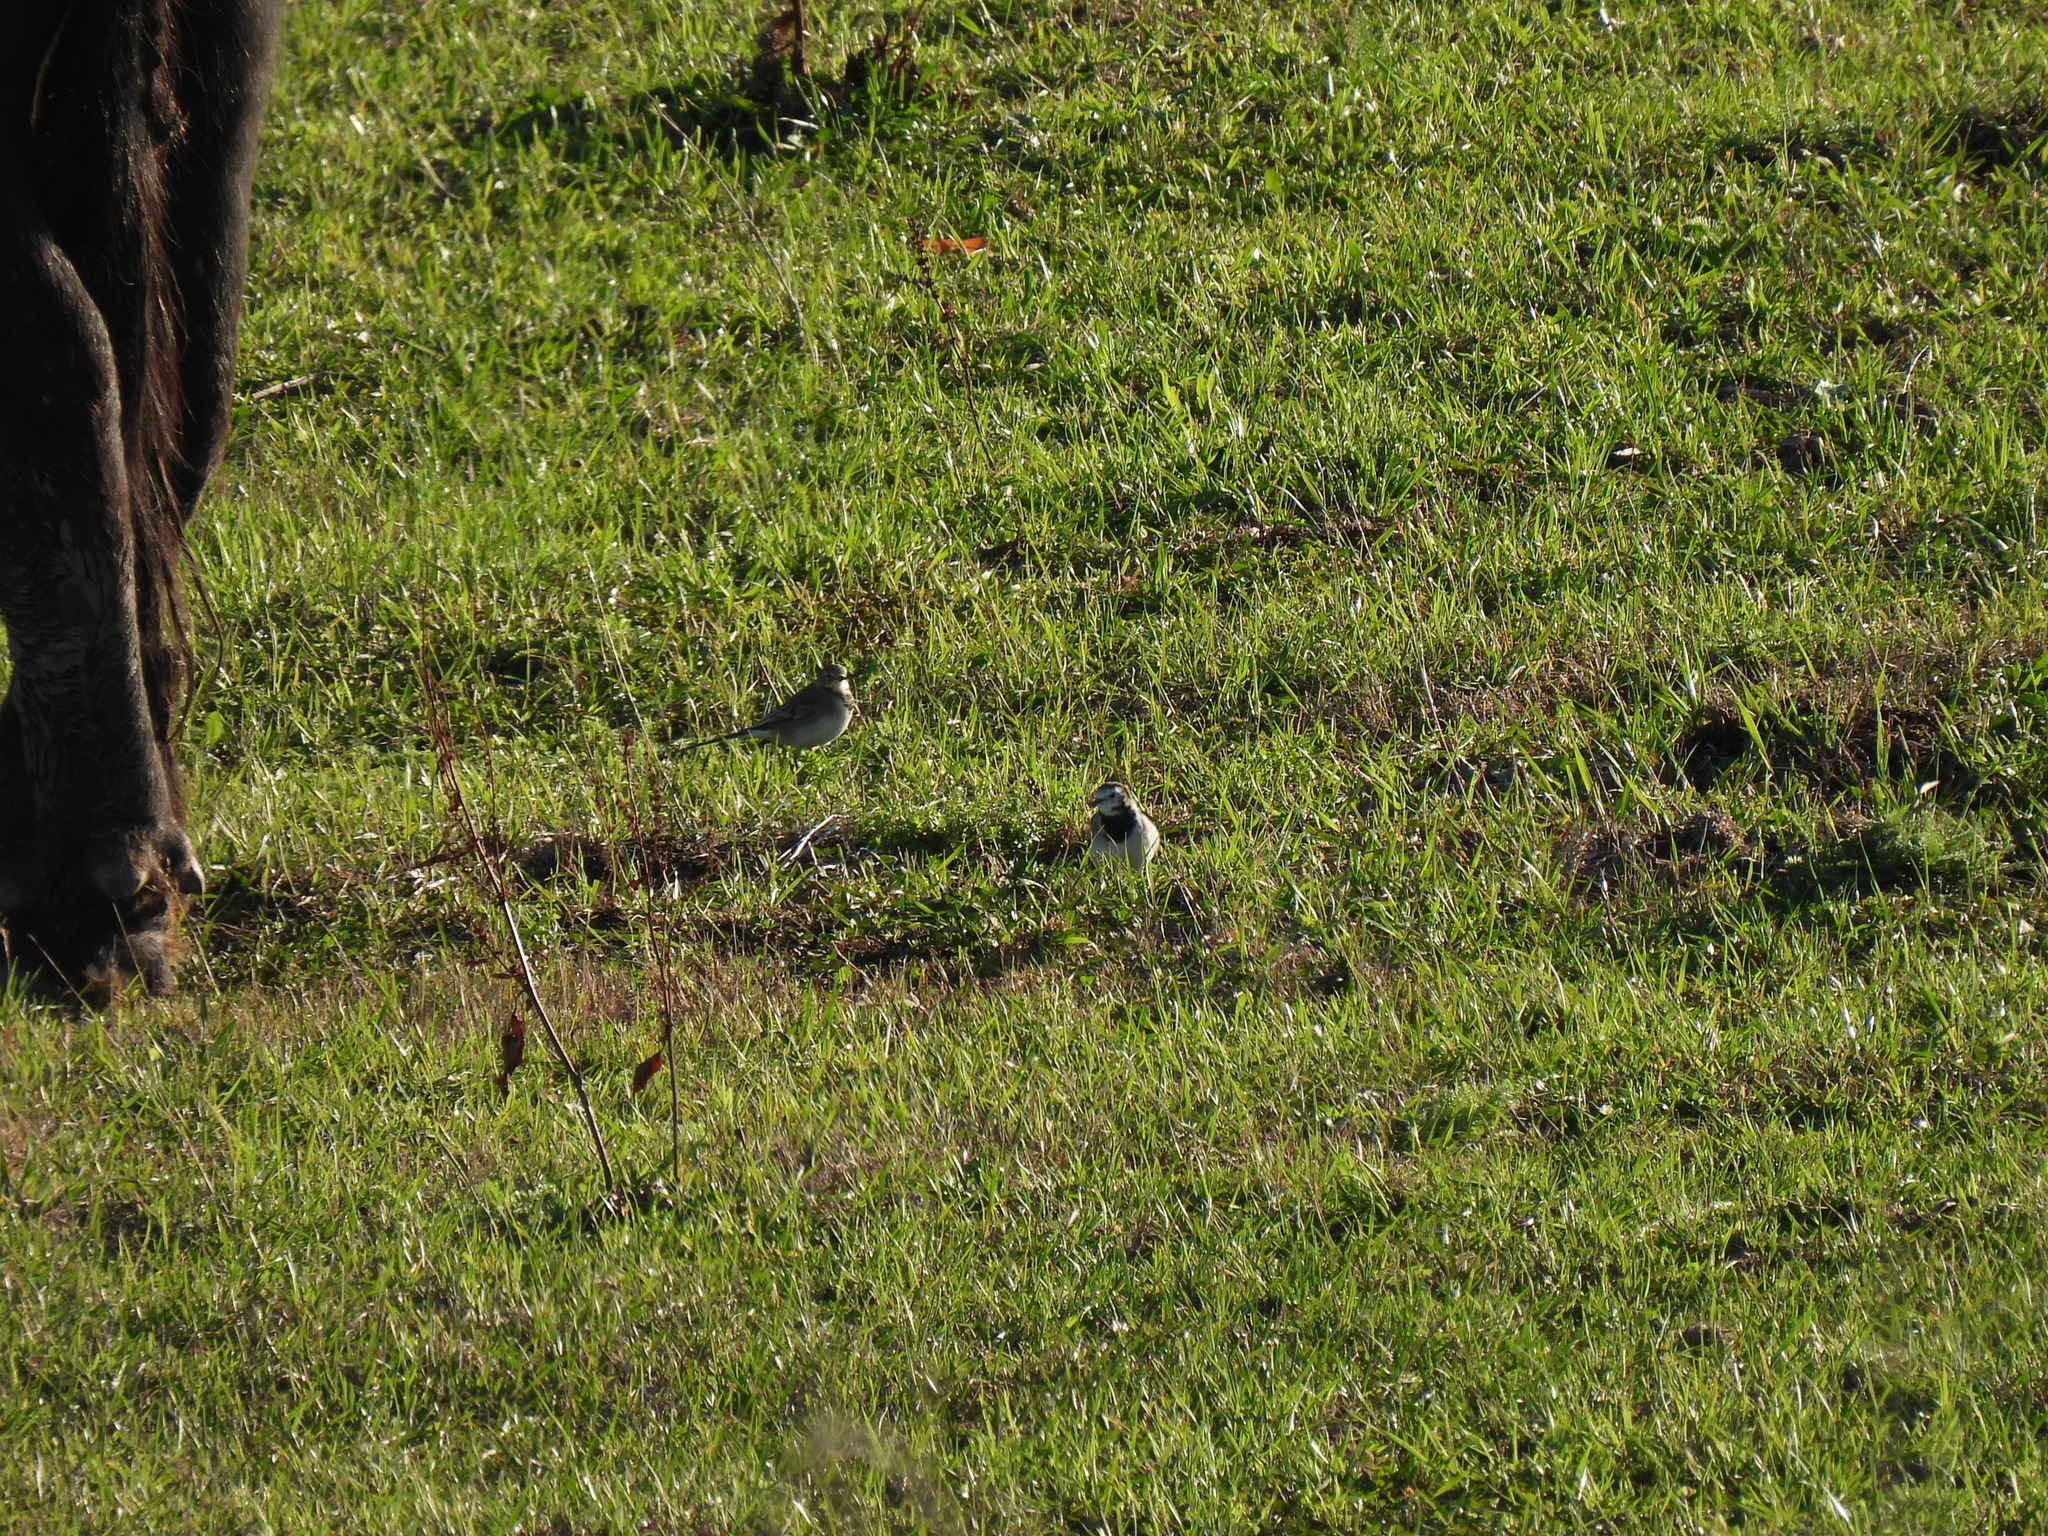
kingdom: Animalia
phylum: Chordata
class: Aves
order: Passeriformes
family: Motacillidae
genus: Motacilla
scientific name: Motacilla alba
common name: White wagtail
